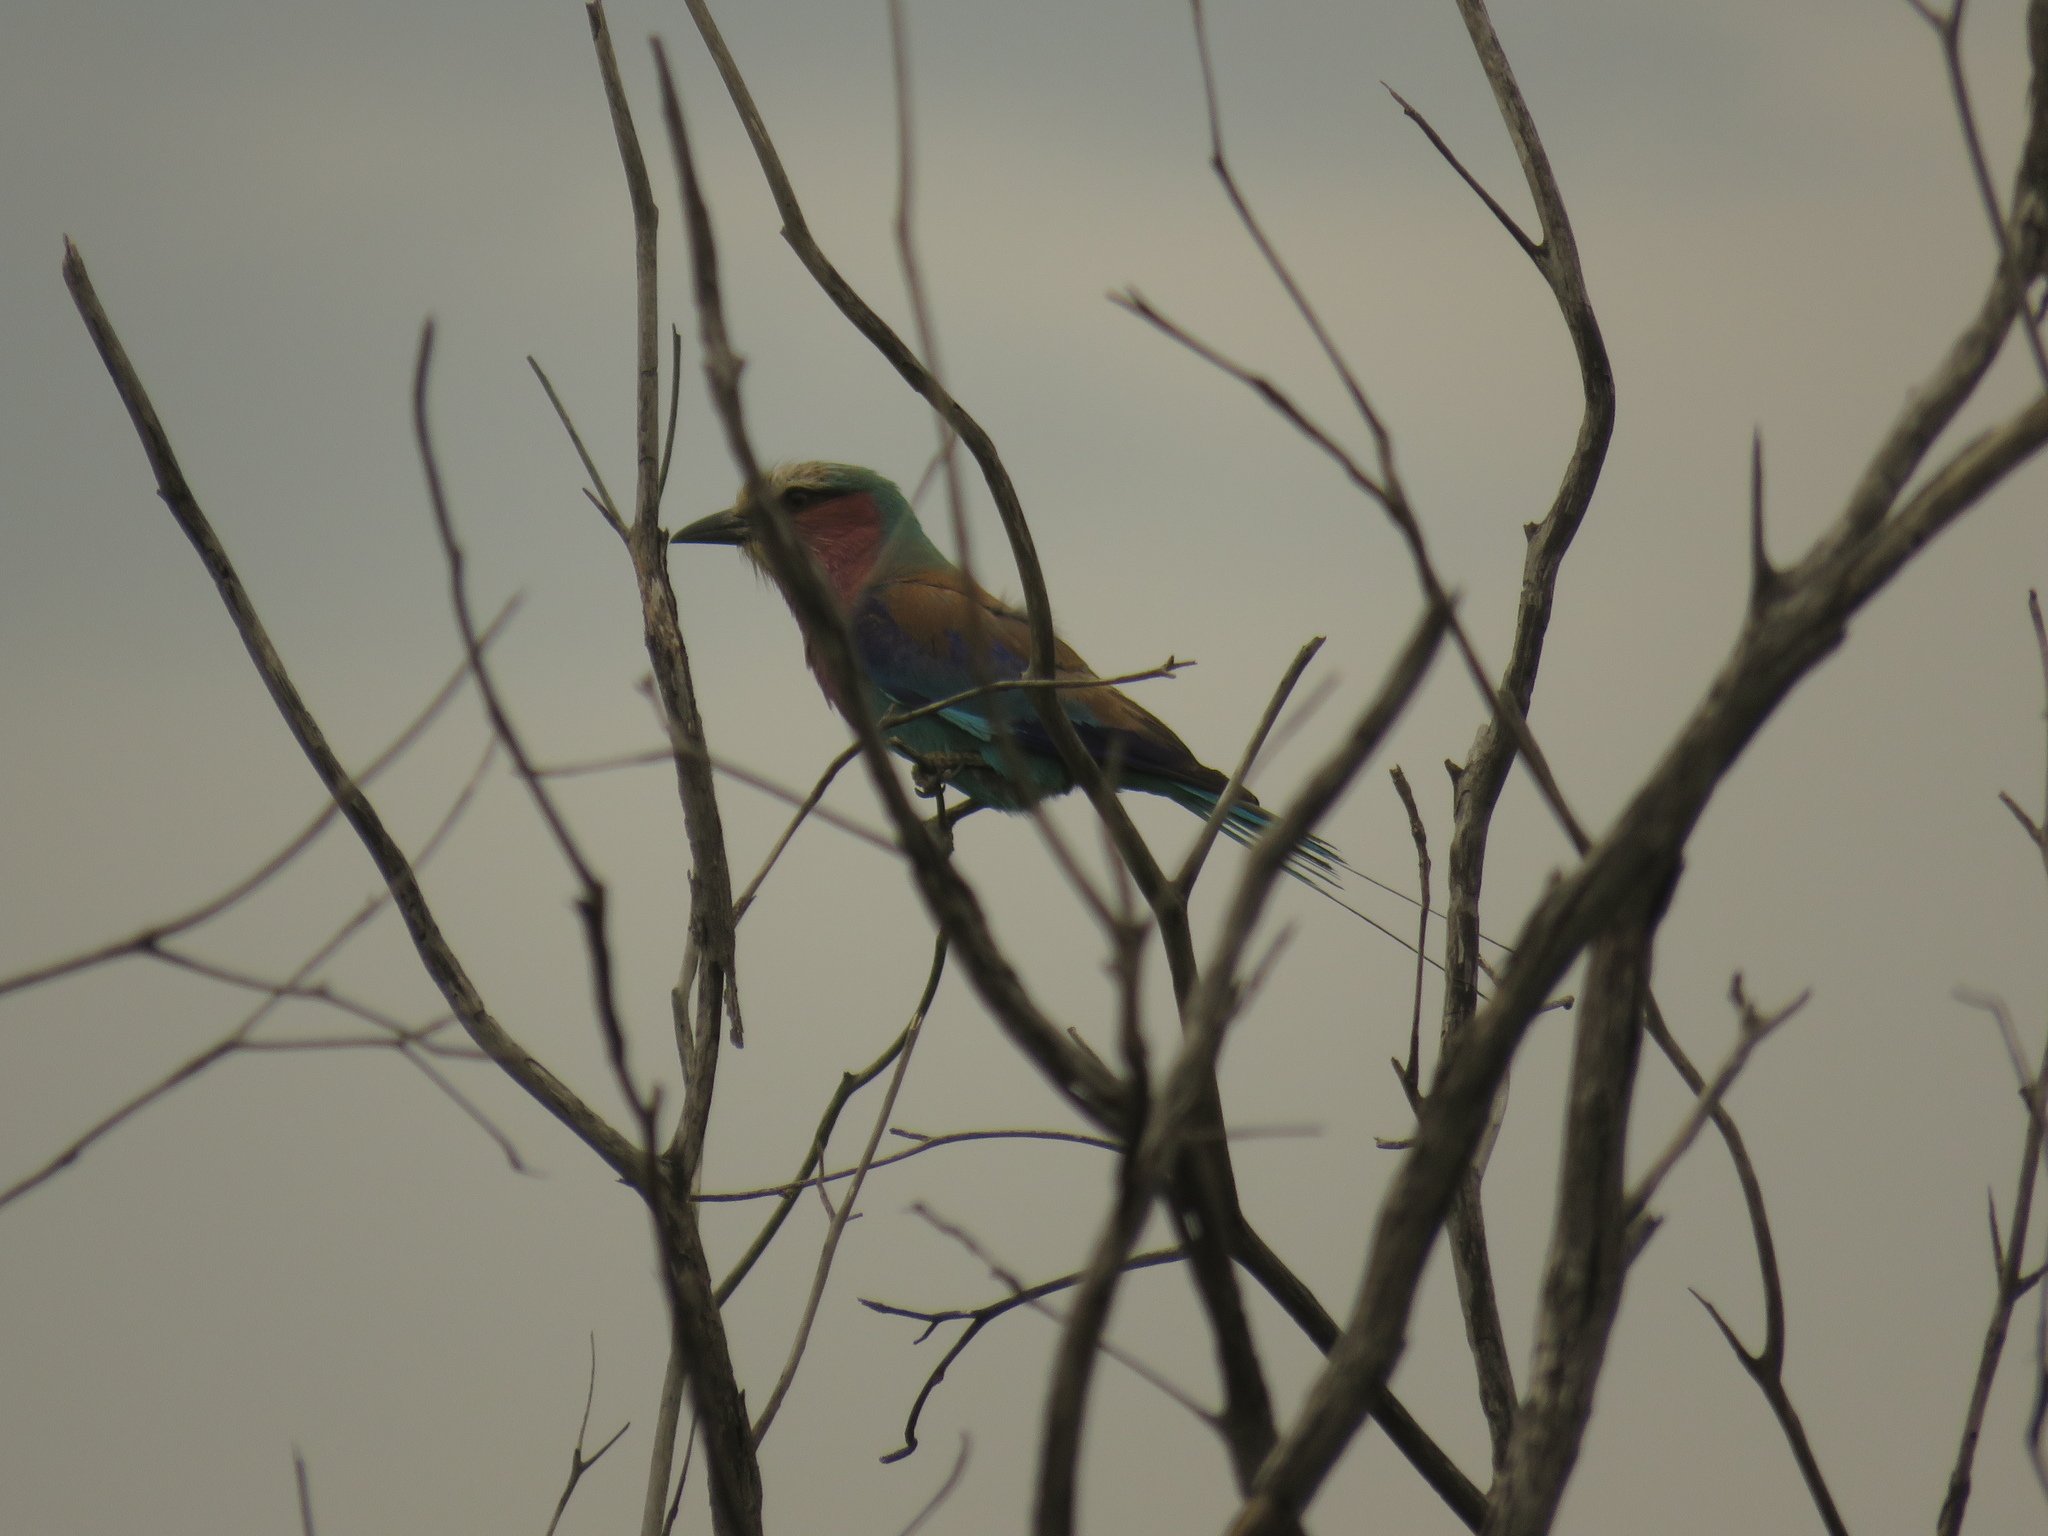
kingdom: Animalia
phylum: Chordata
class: Aves
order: Coraciiformes
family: Coraciidae
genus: Coracias
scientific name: Coracias caudatus
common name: Lilac-breasted roller
